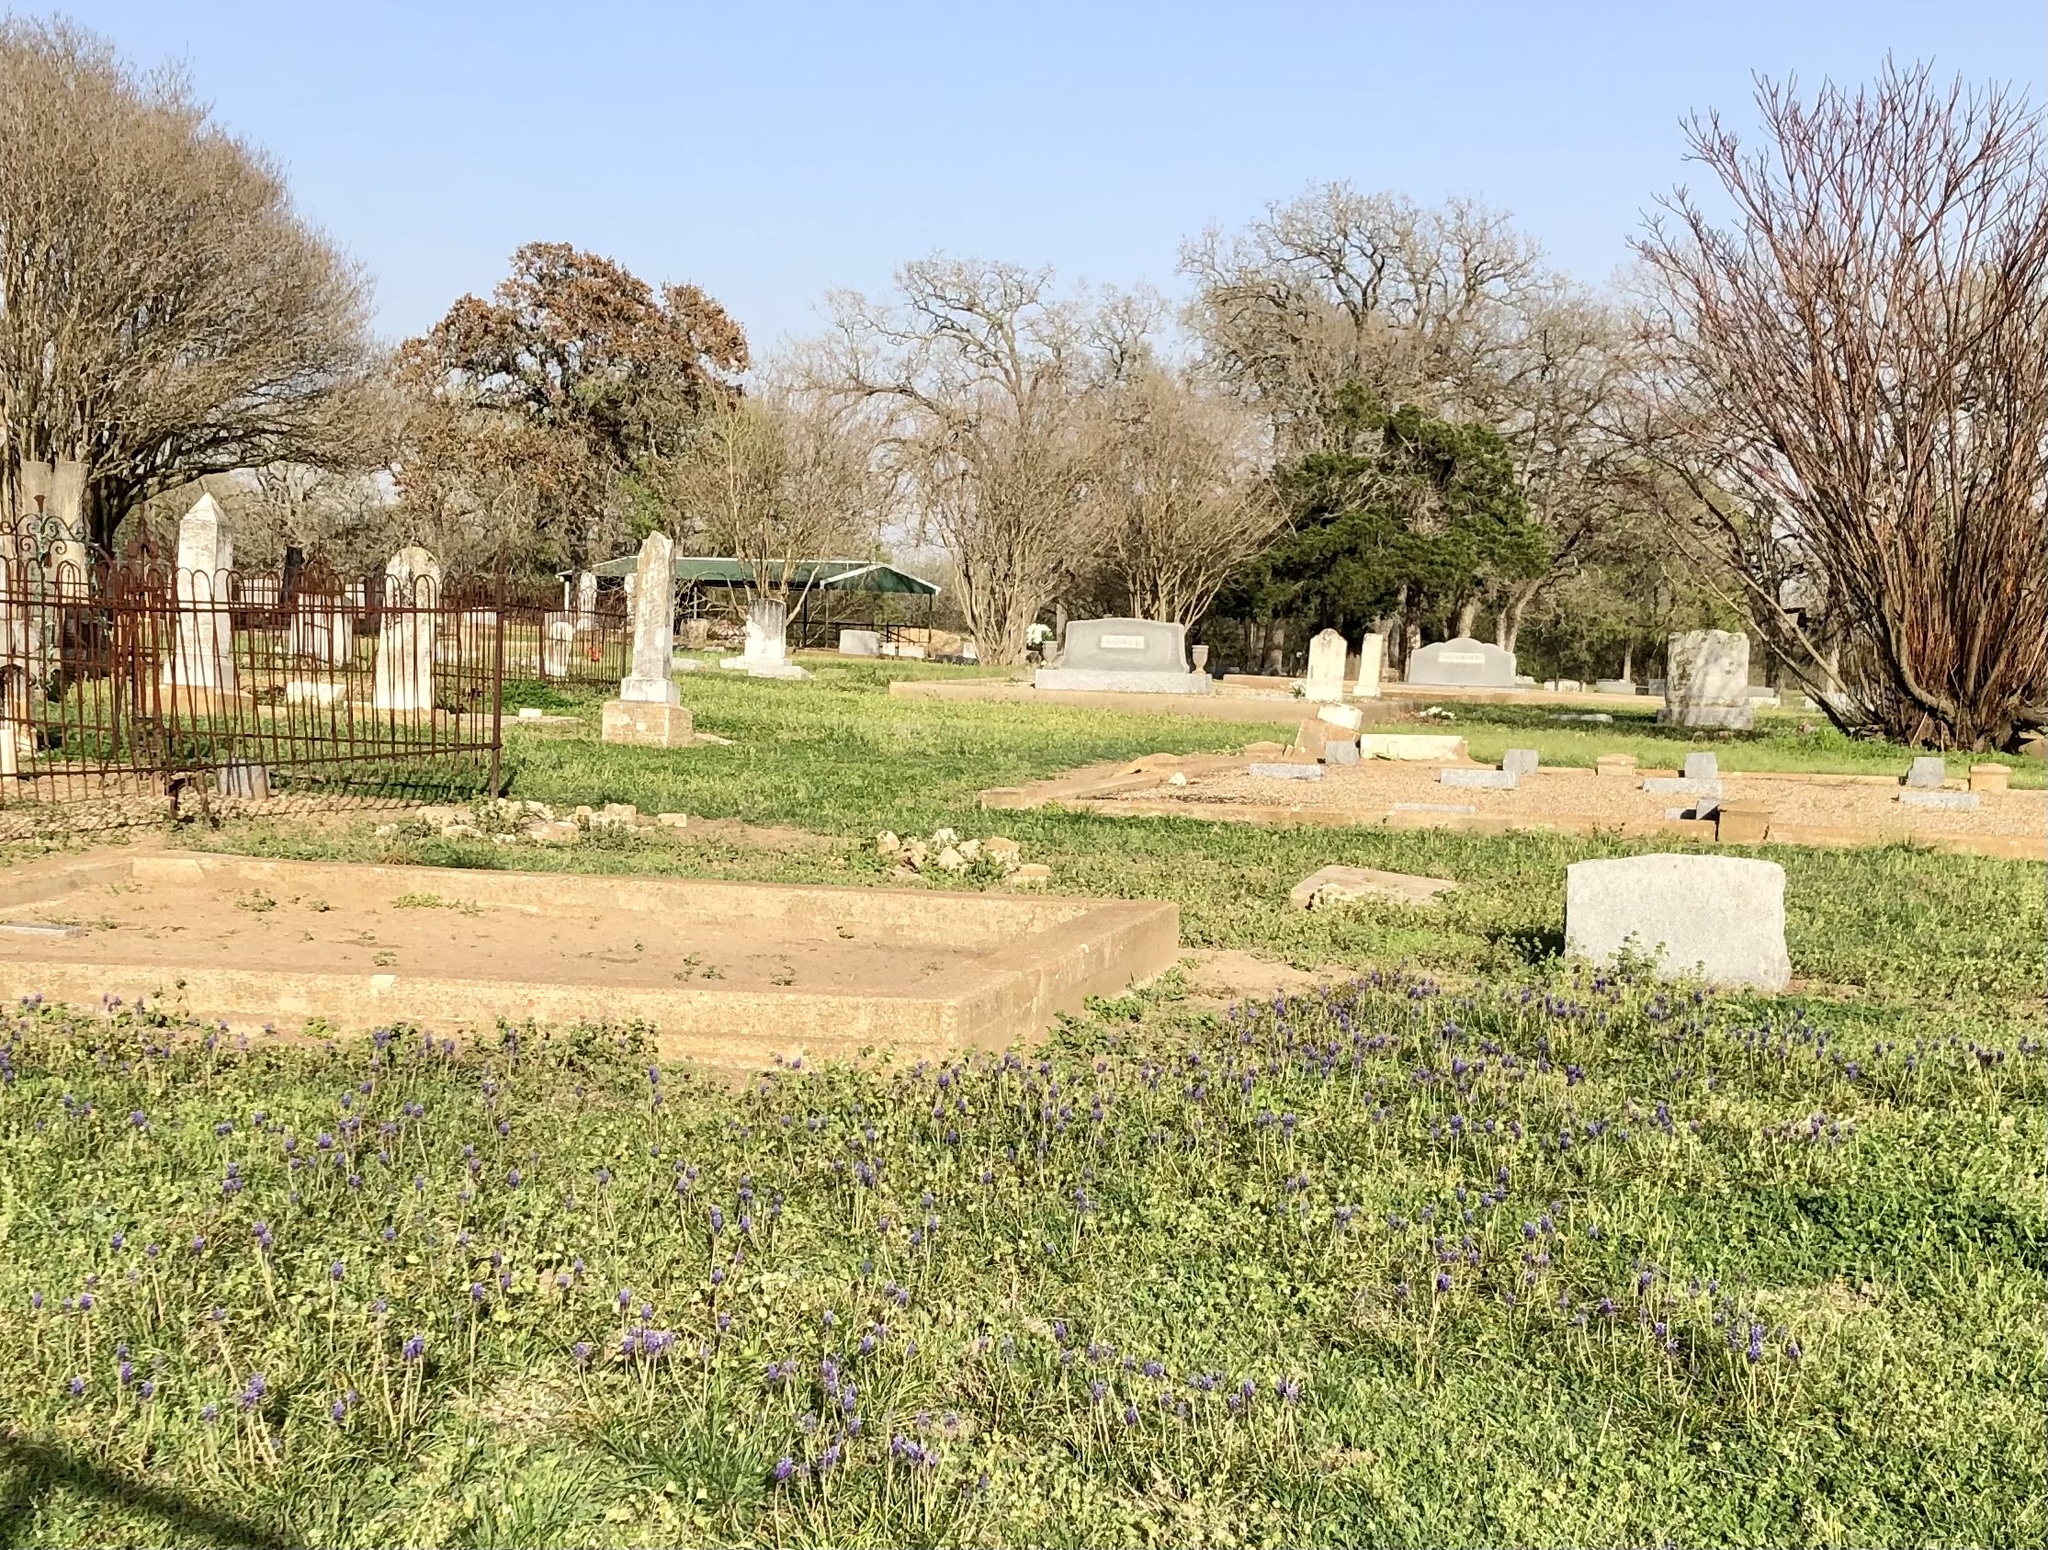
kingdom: Plantae
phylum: Tracheophyta
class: Liliopsida
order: Asparagales
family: Asparagaceae
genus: Muscari
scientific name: Muscari neglectum
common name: Grape-hyacinth
